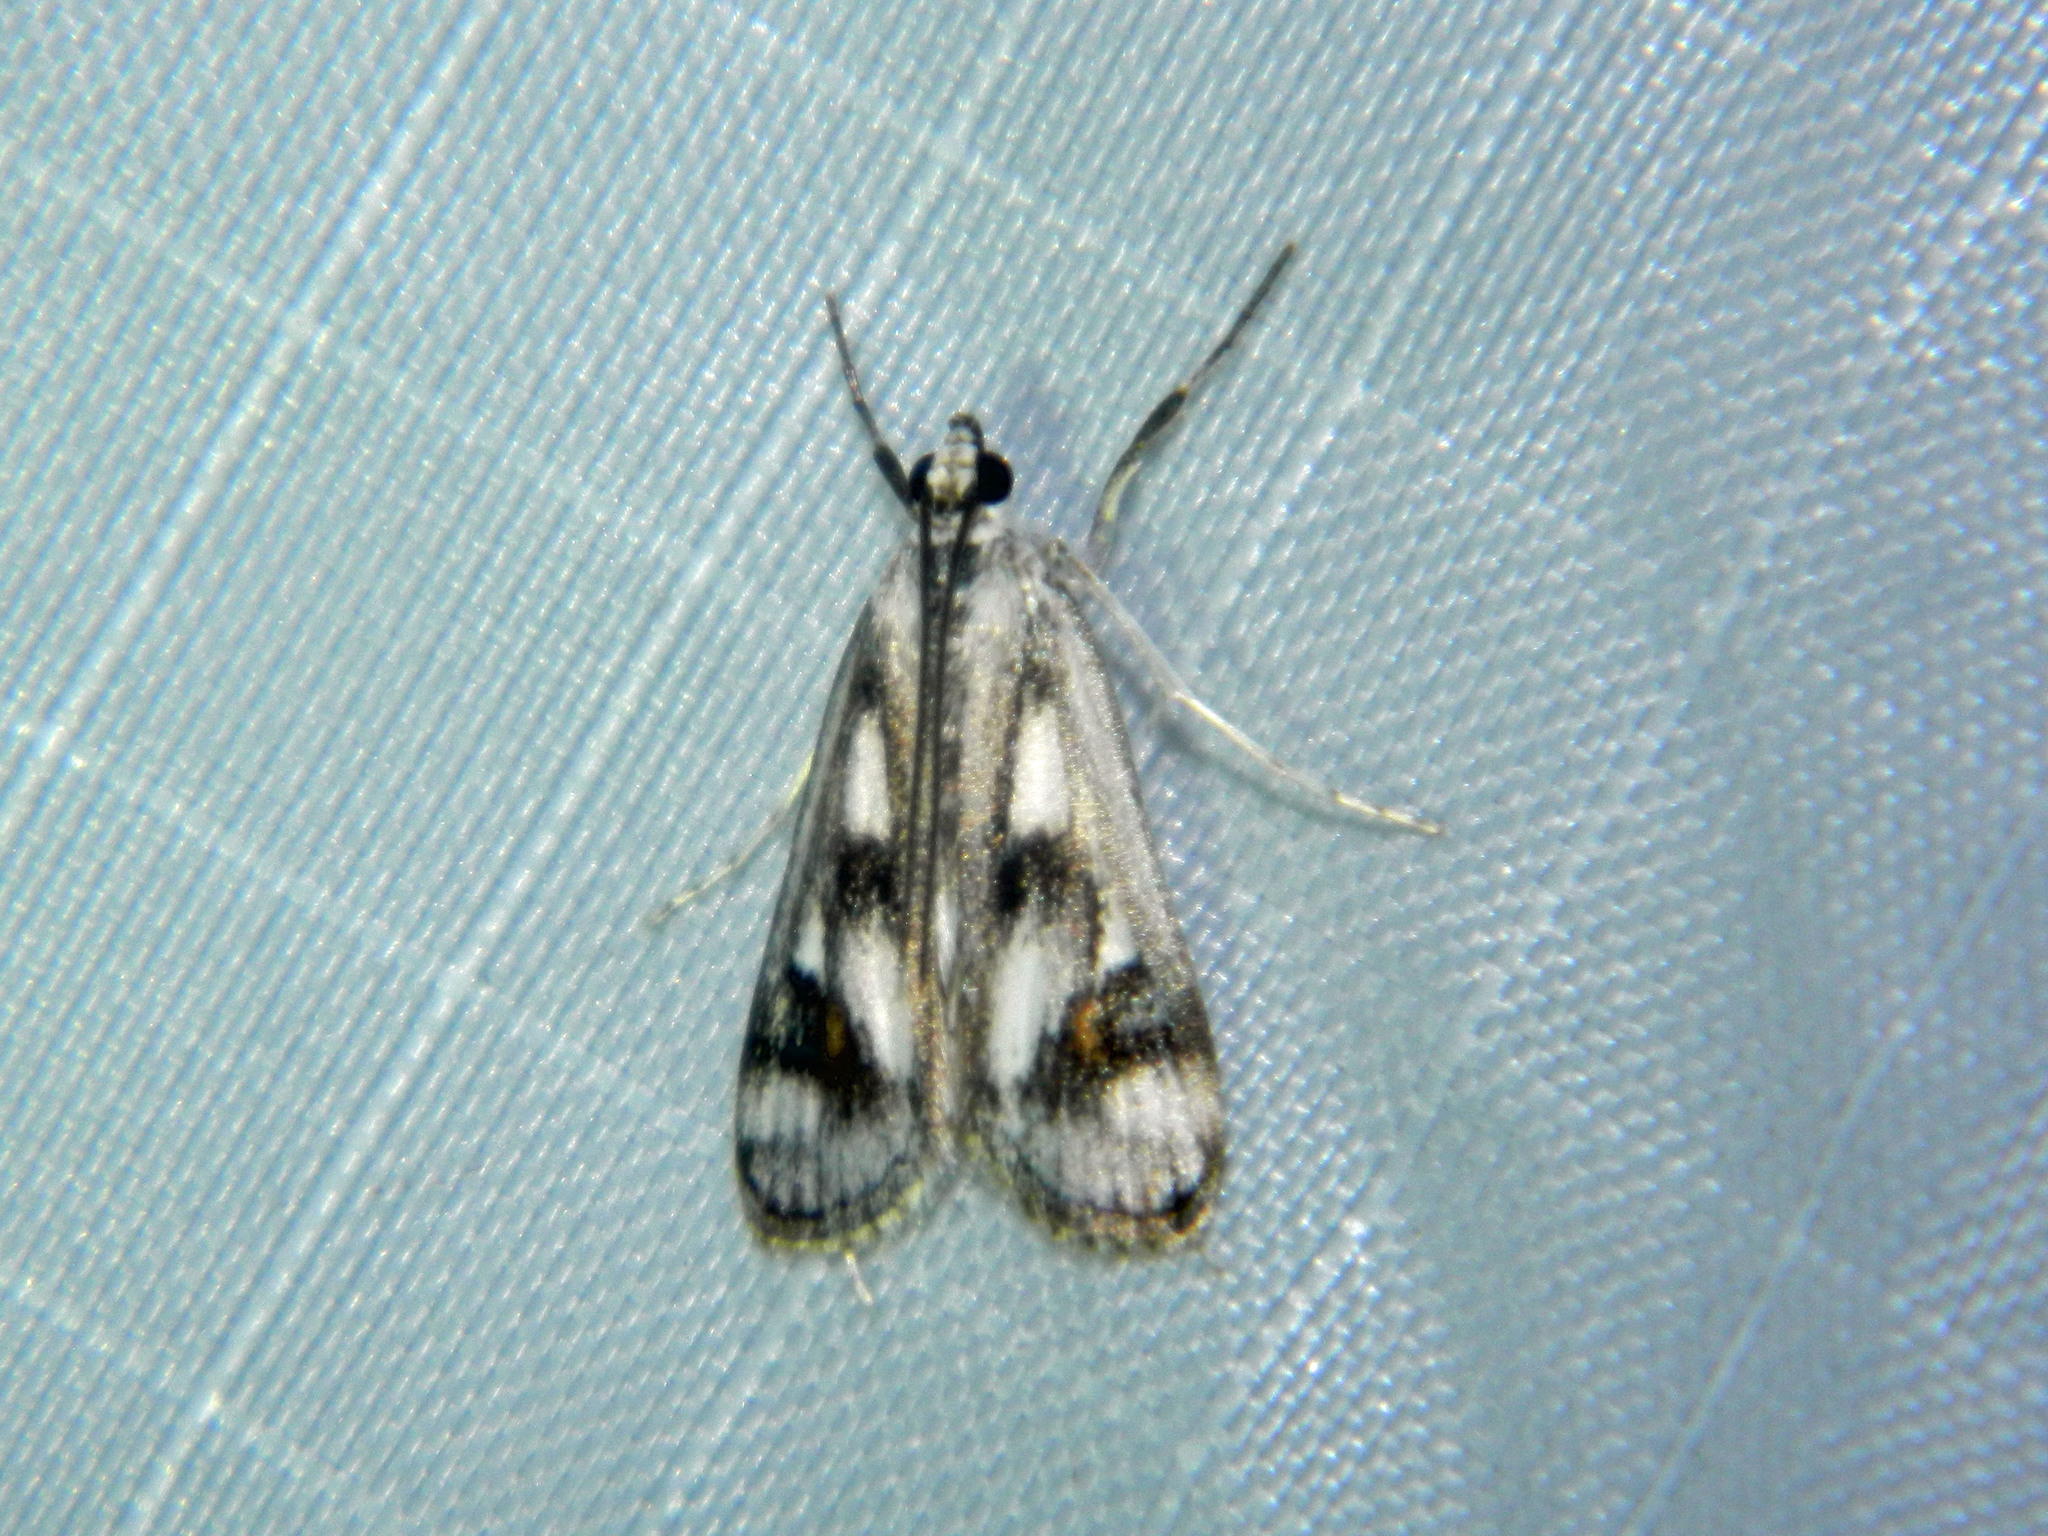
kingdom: Animalia
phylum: Arthropoda
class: Insecta
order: Lepidoptera
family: Crambidae
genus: Parapoynx
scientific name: Parapoynx maculalis
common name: Polymorphic pondweed moth
